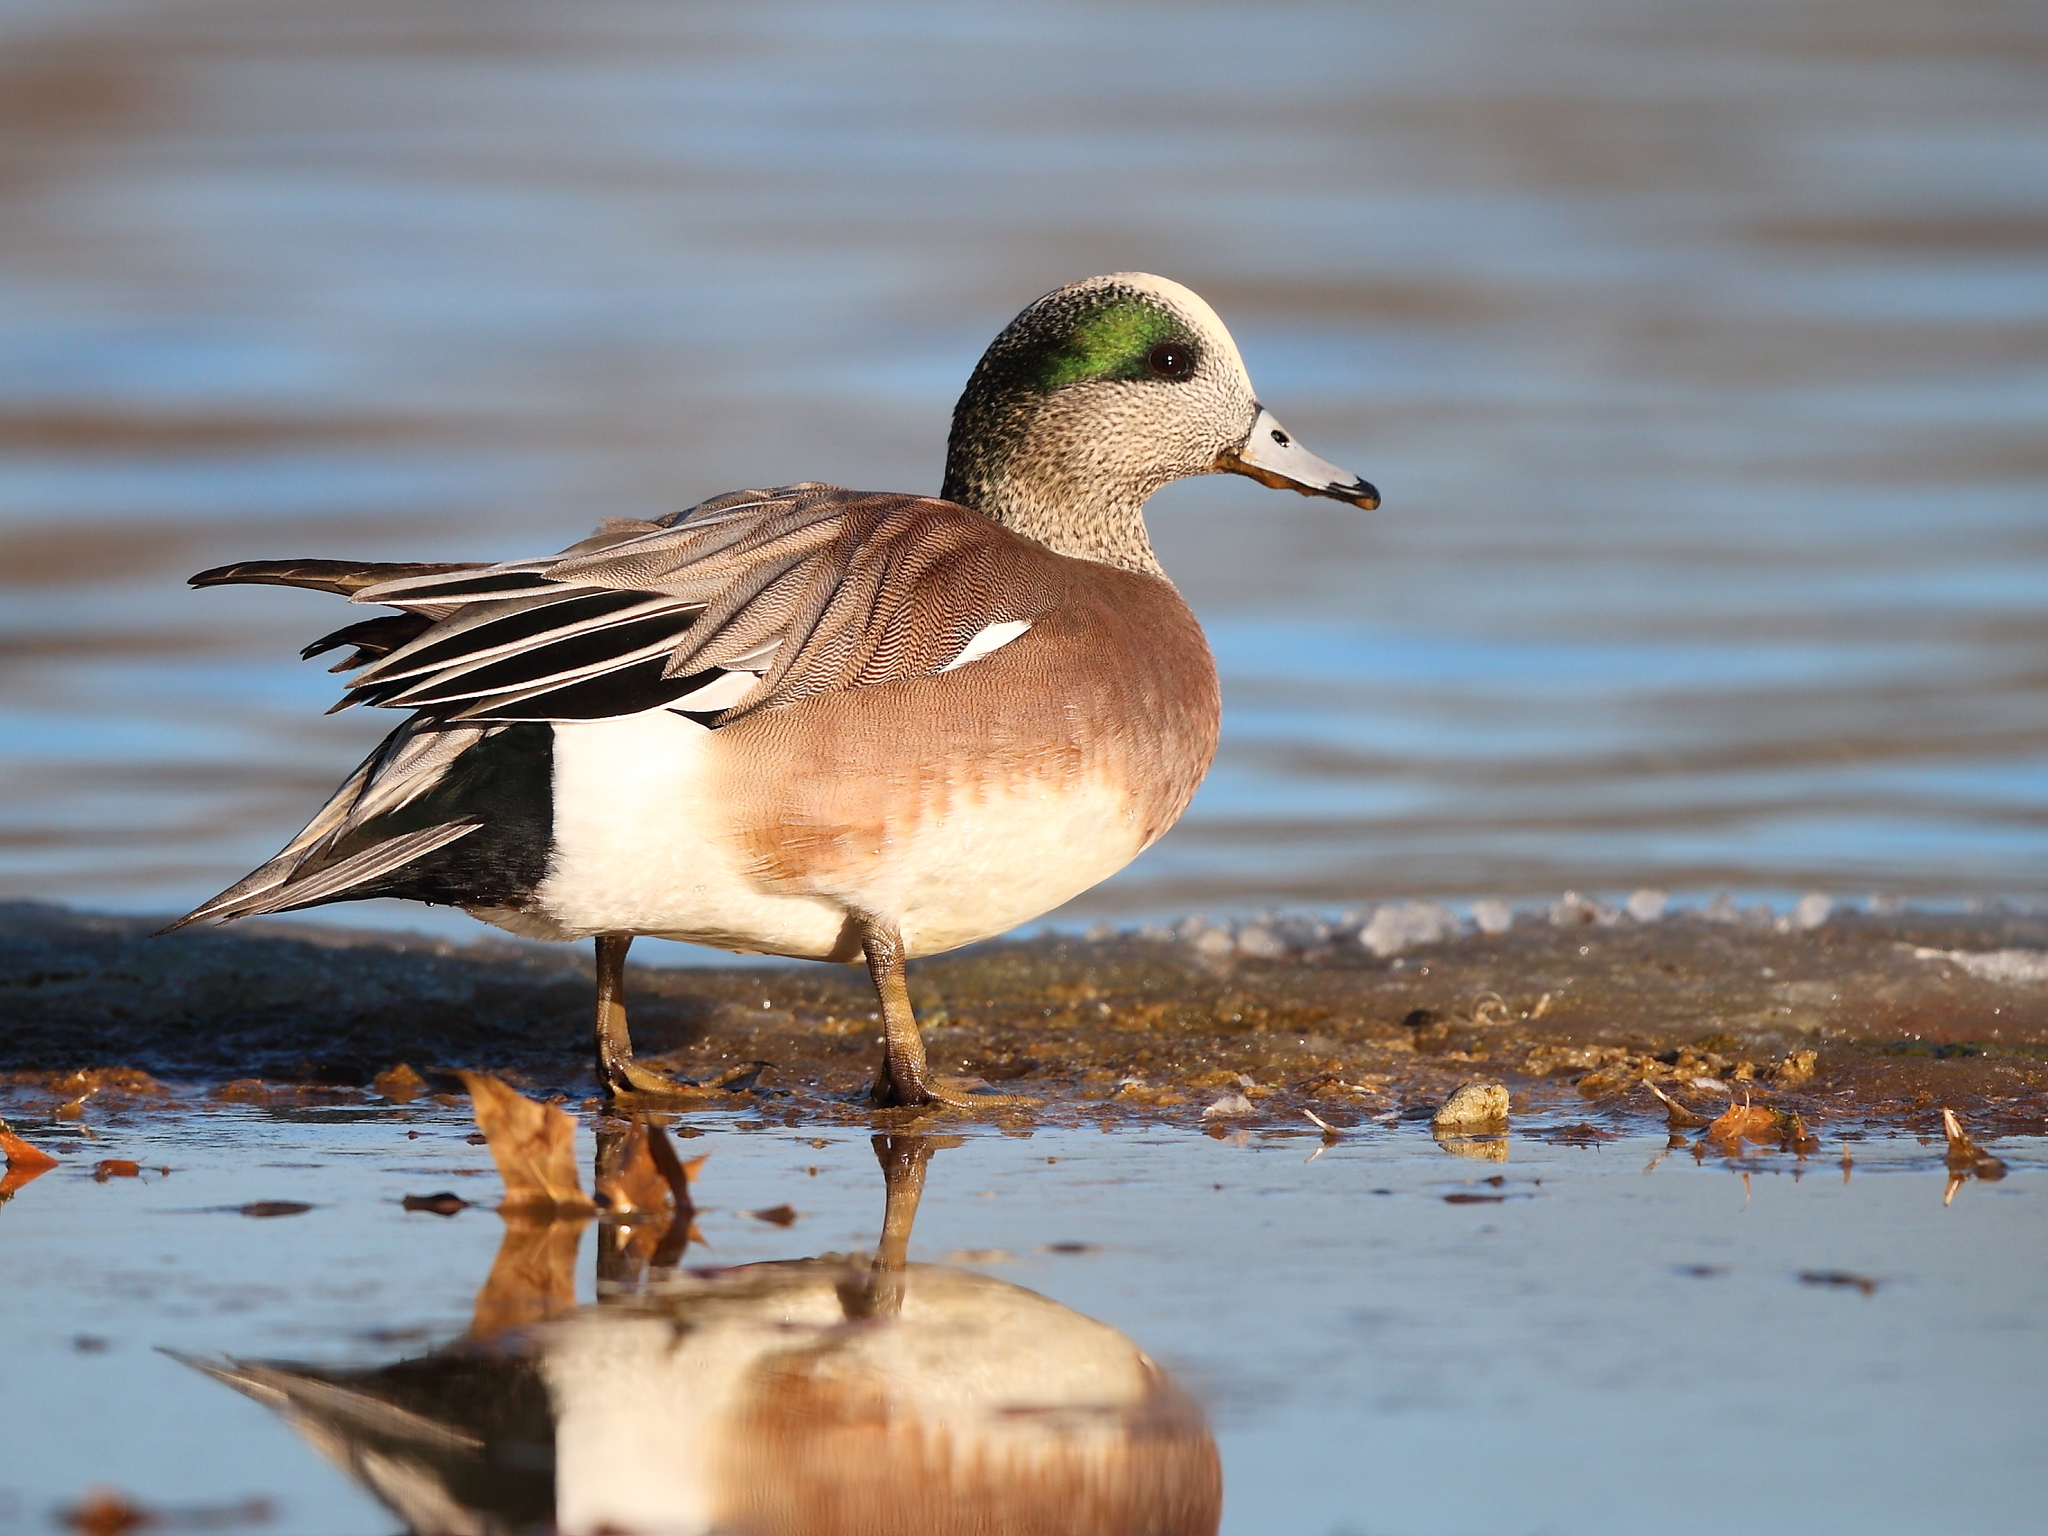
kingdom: Animalia
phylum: Chordata
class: Aves
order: Anseriformes
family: Anatidae
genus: Mareca
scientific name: Mareca americana
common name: American wigeon
